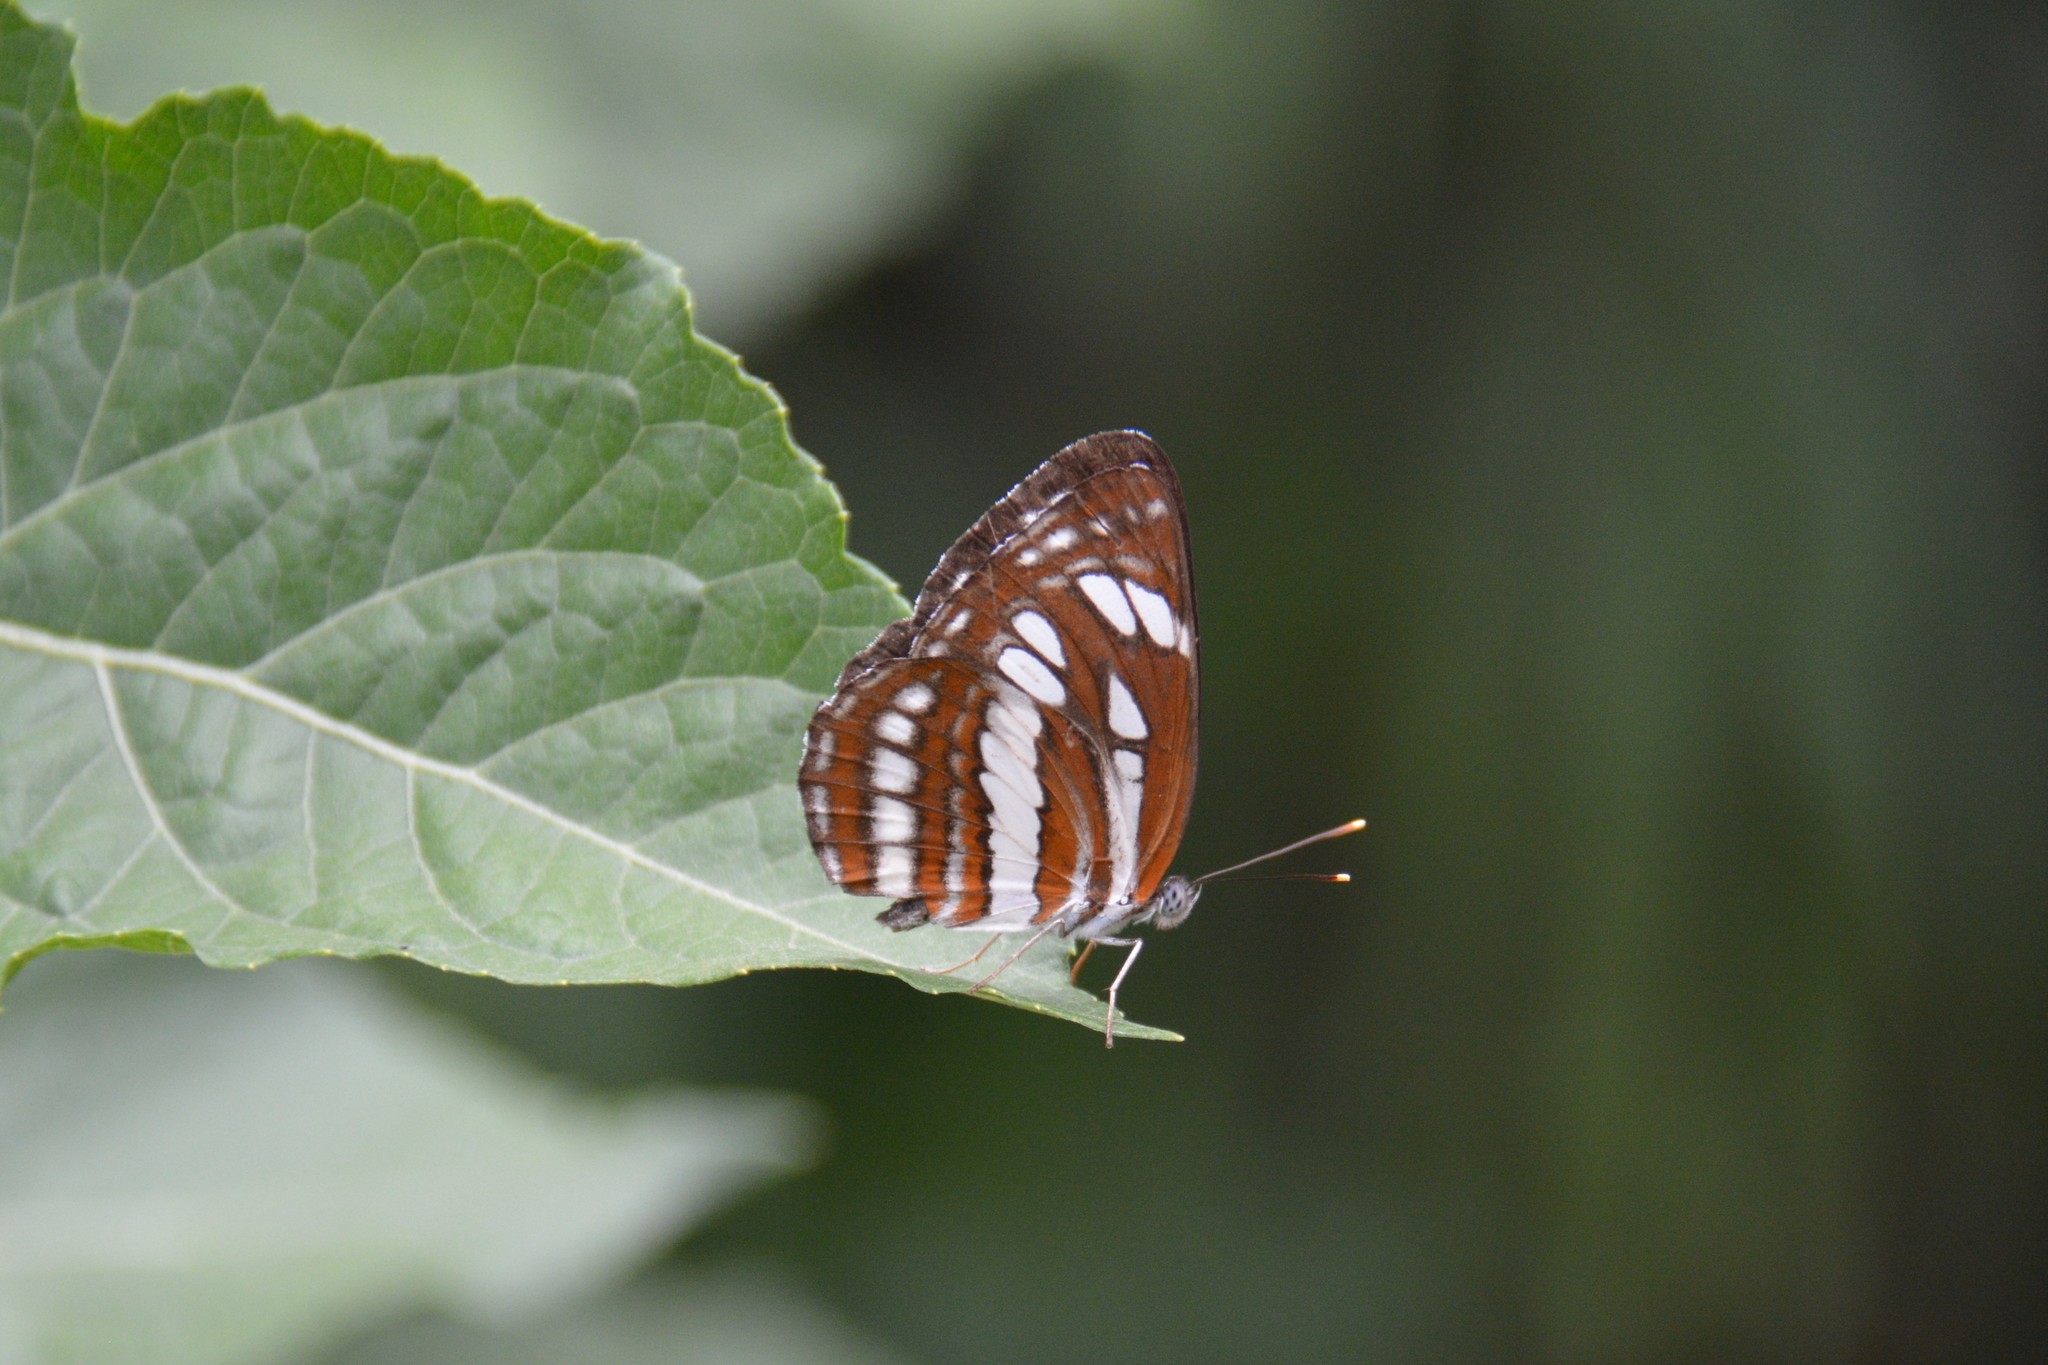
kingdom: Animalia
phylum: Arthropoda
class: Insecta
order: Lepidoptera
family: Nymphalidae
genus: Neptis
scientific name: Neptis hylas
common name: Common sailer
